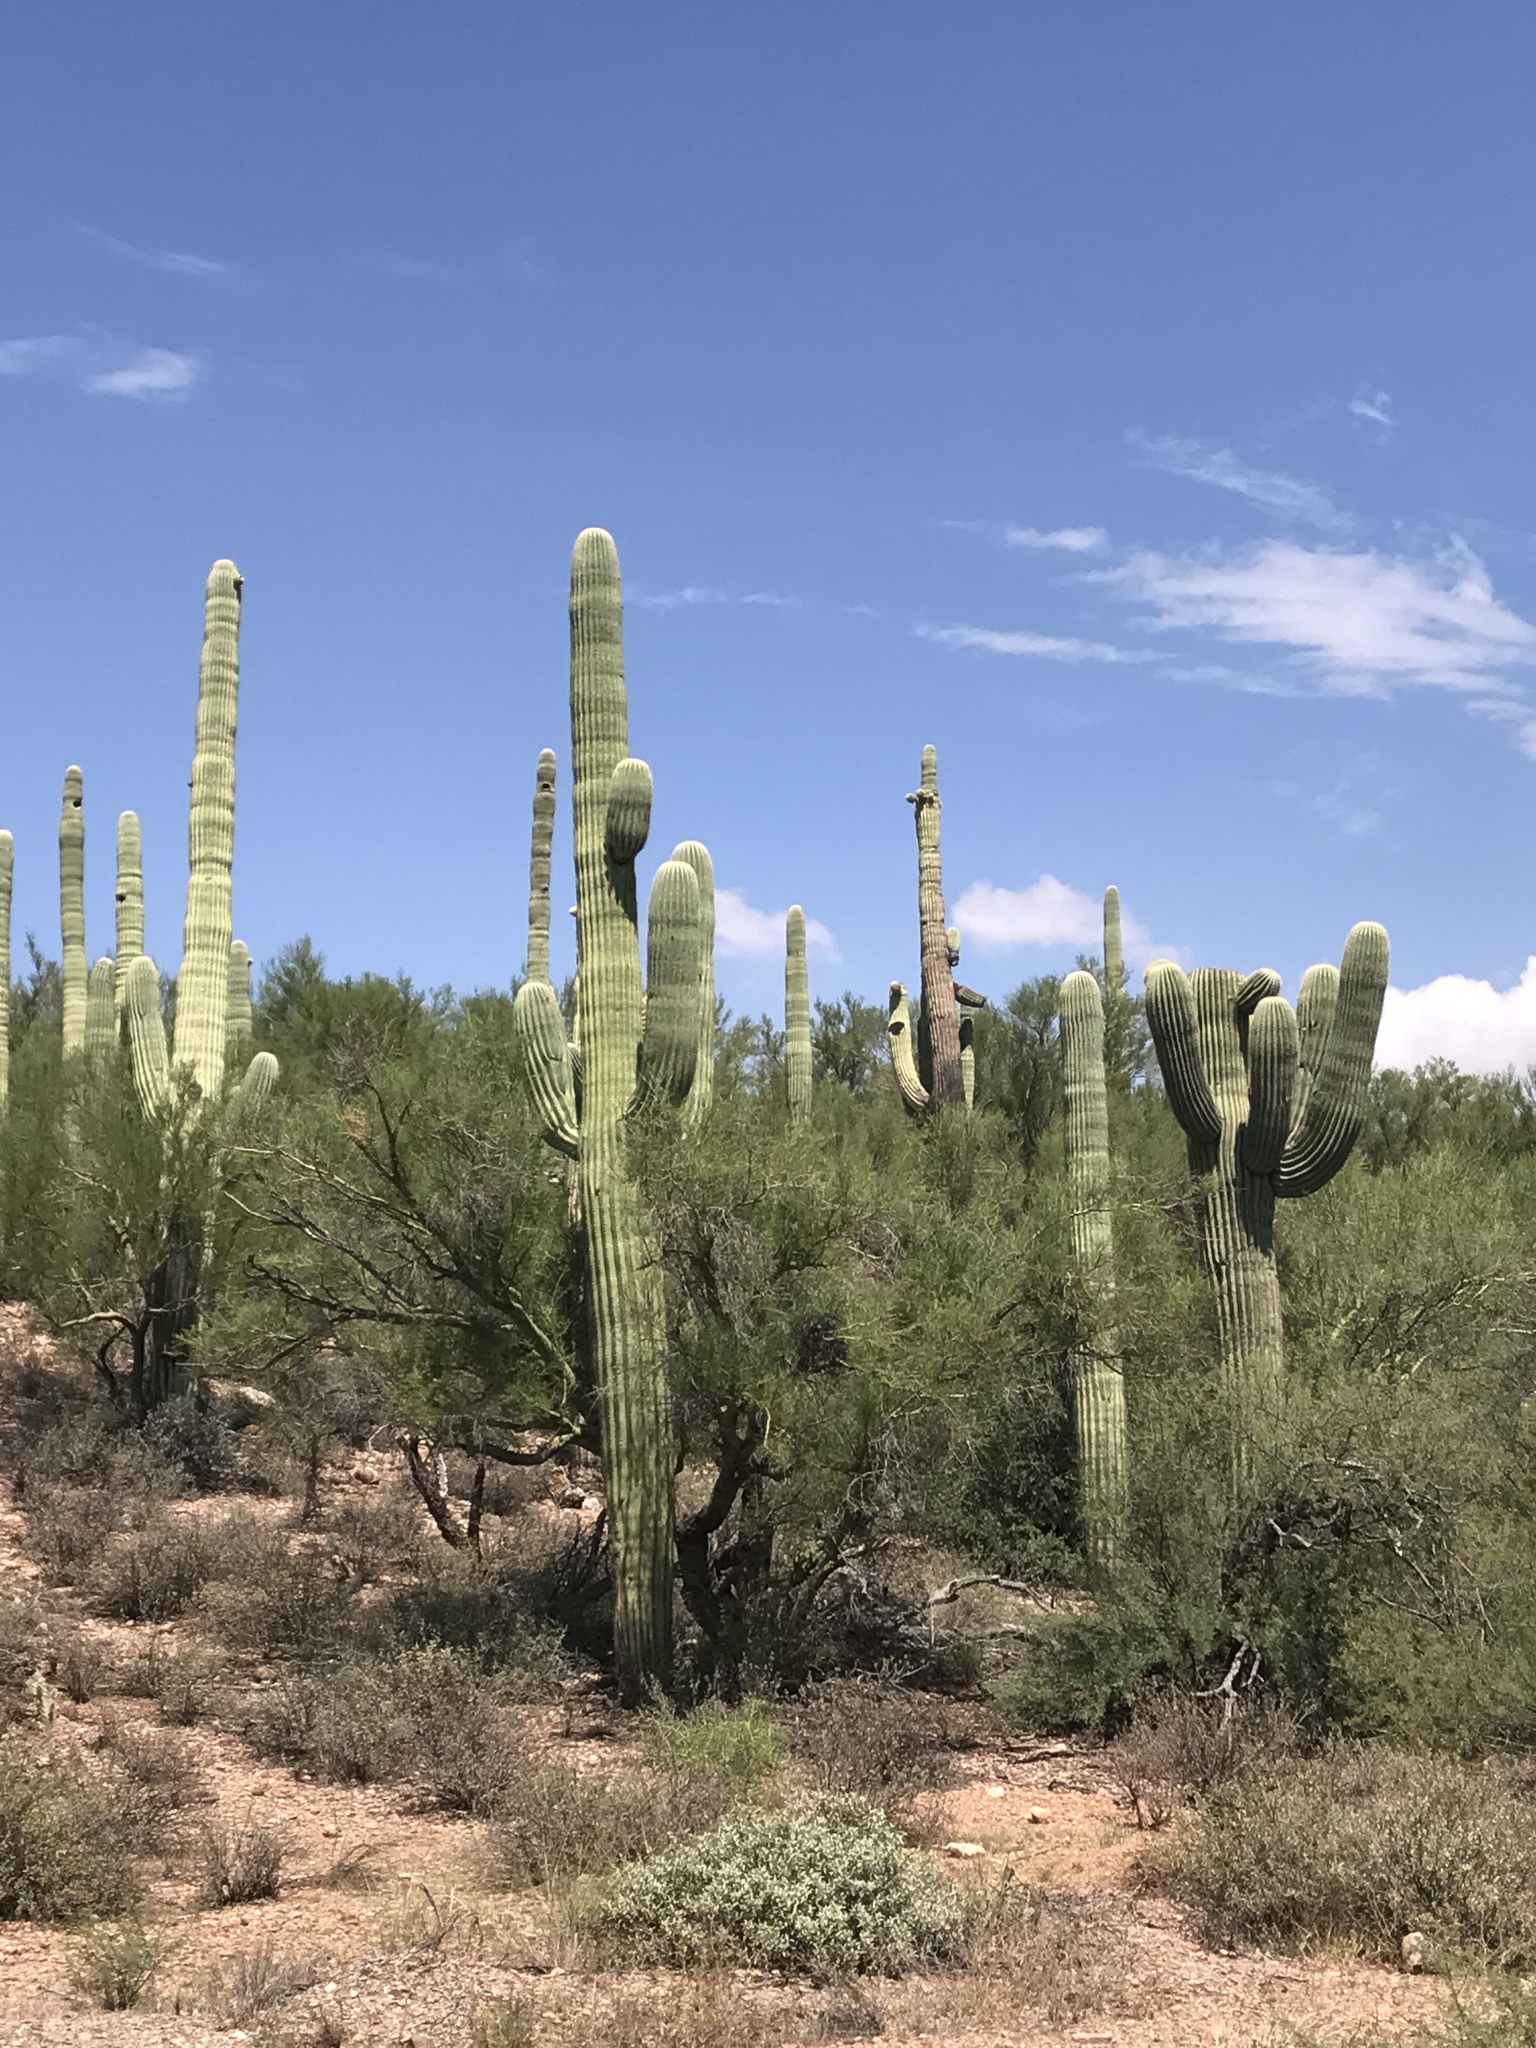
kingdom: Plantae
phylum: Tracheophyta
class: Magnoliopsida
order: Caryophyllales
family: Cactaceae
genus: Carnegiea
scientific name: Carnegiea gigantea
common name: Saguaro
